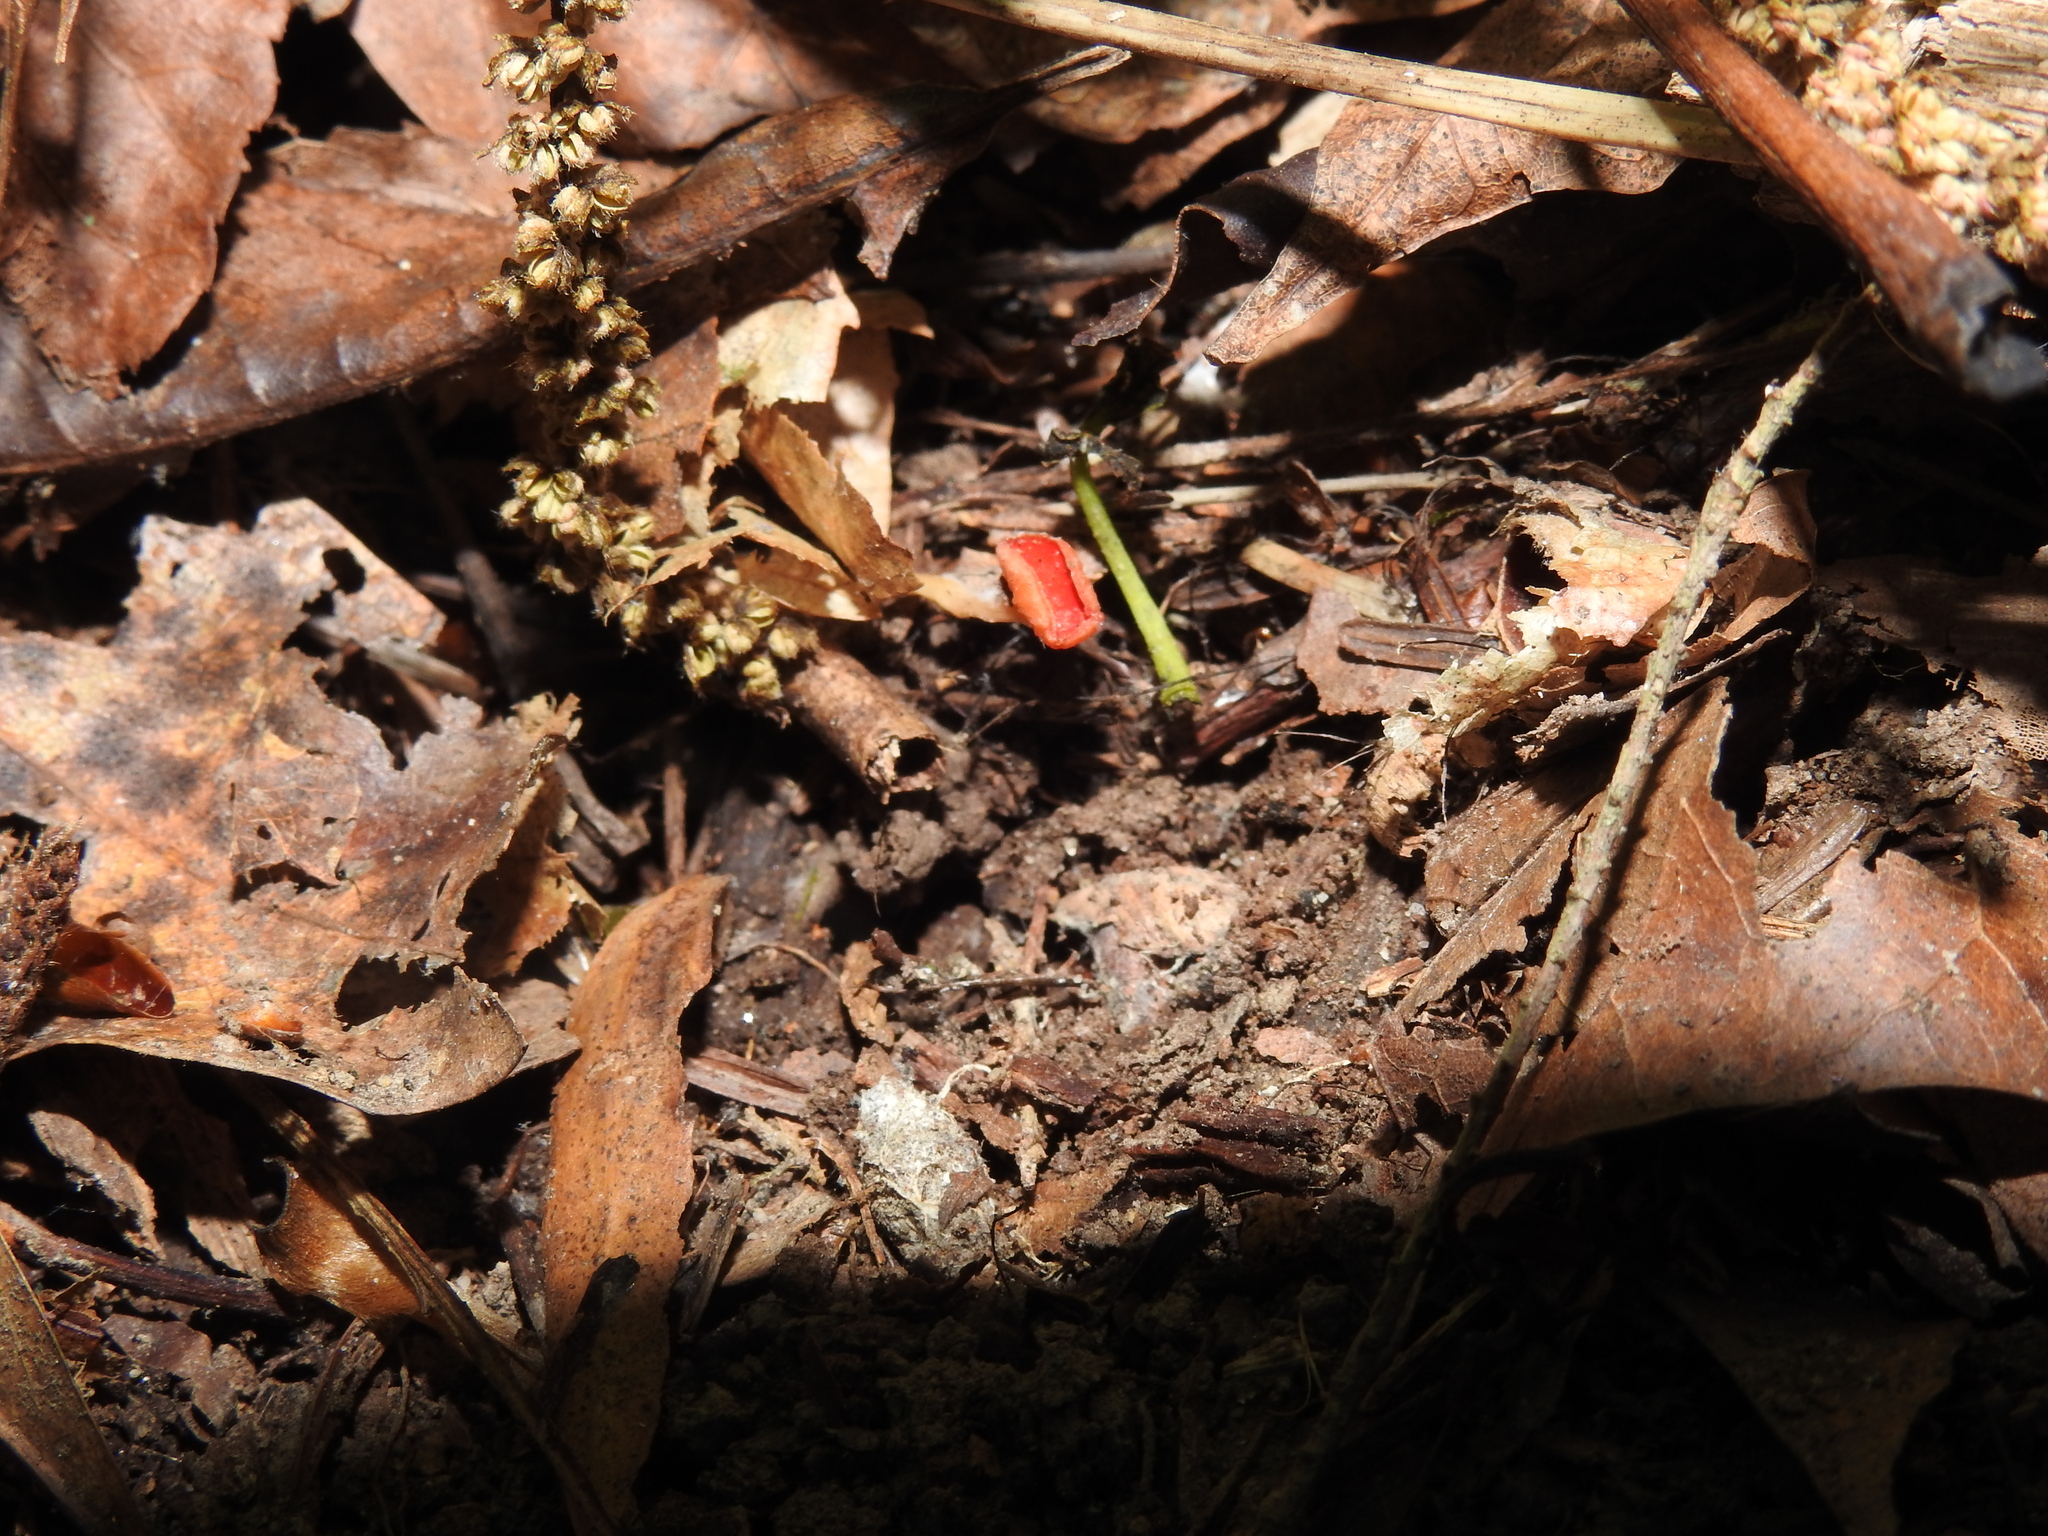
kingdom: Fungi
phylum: Ascomycota
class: Pezizomycetes
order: Pezizales
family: Sarcoscyphaceae
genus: Sarcoscypha
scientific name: Sarcoscypha occidentalis
